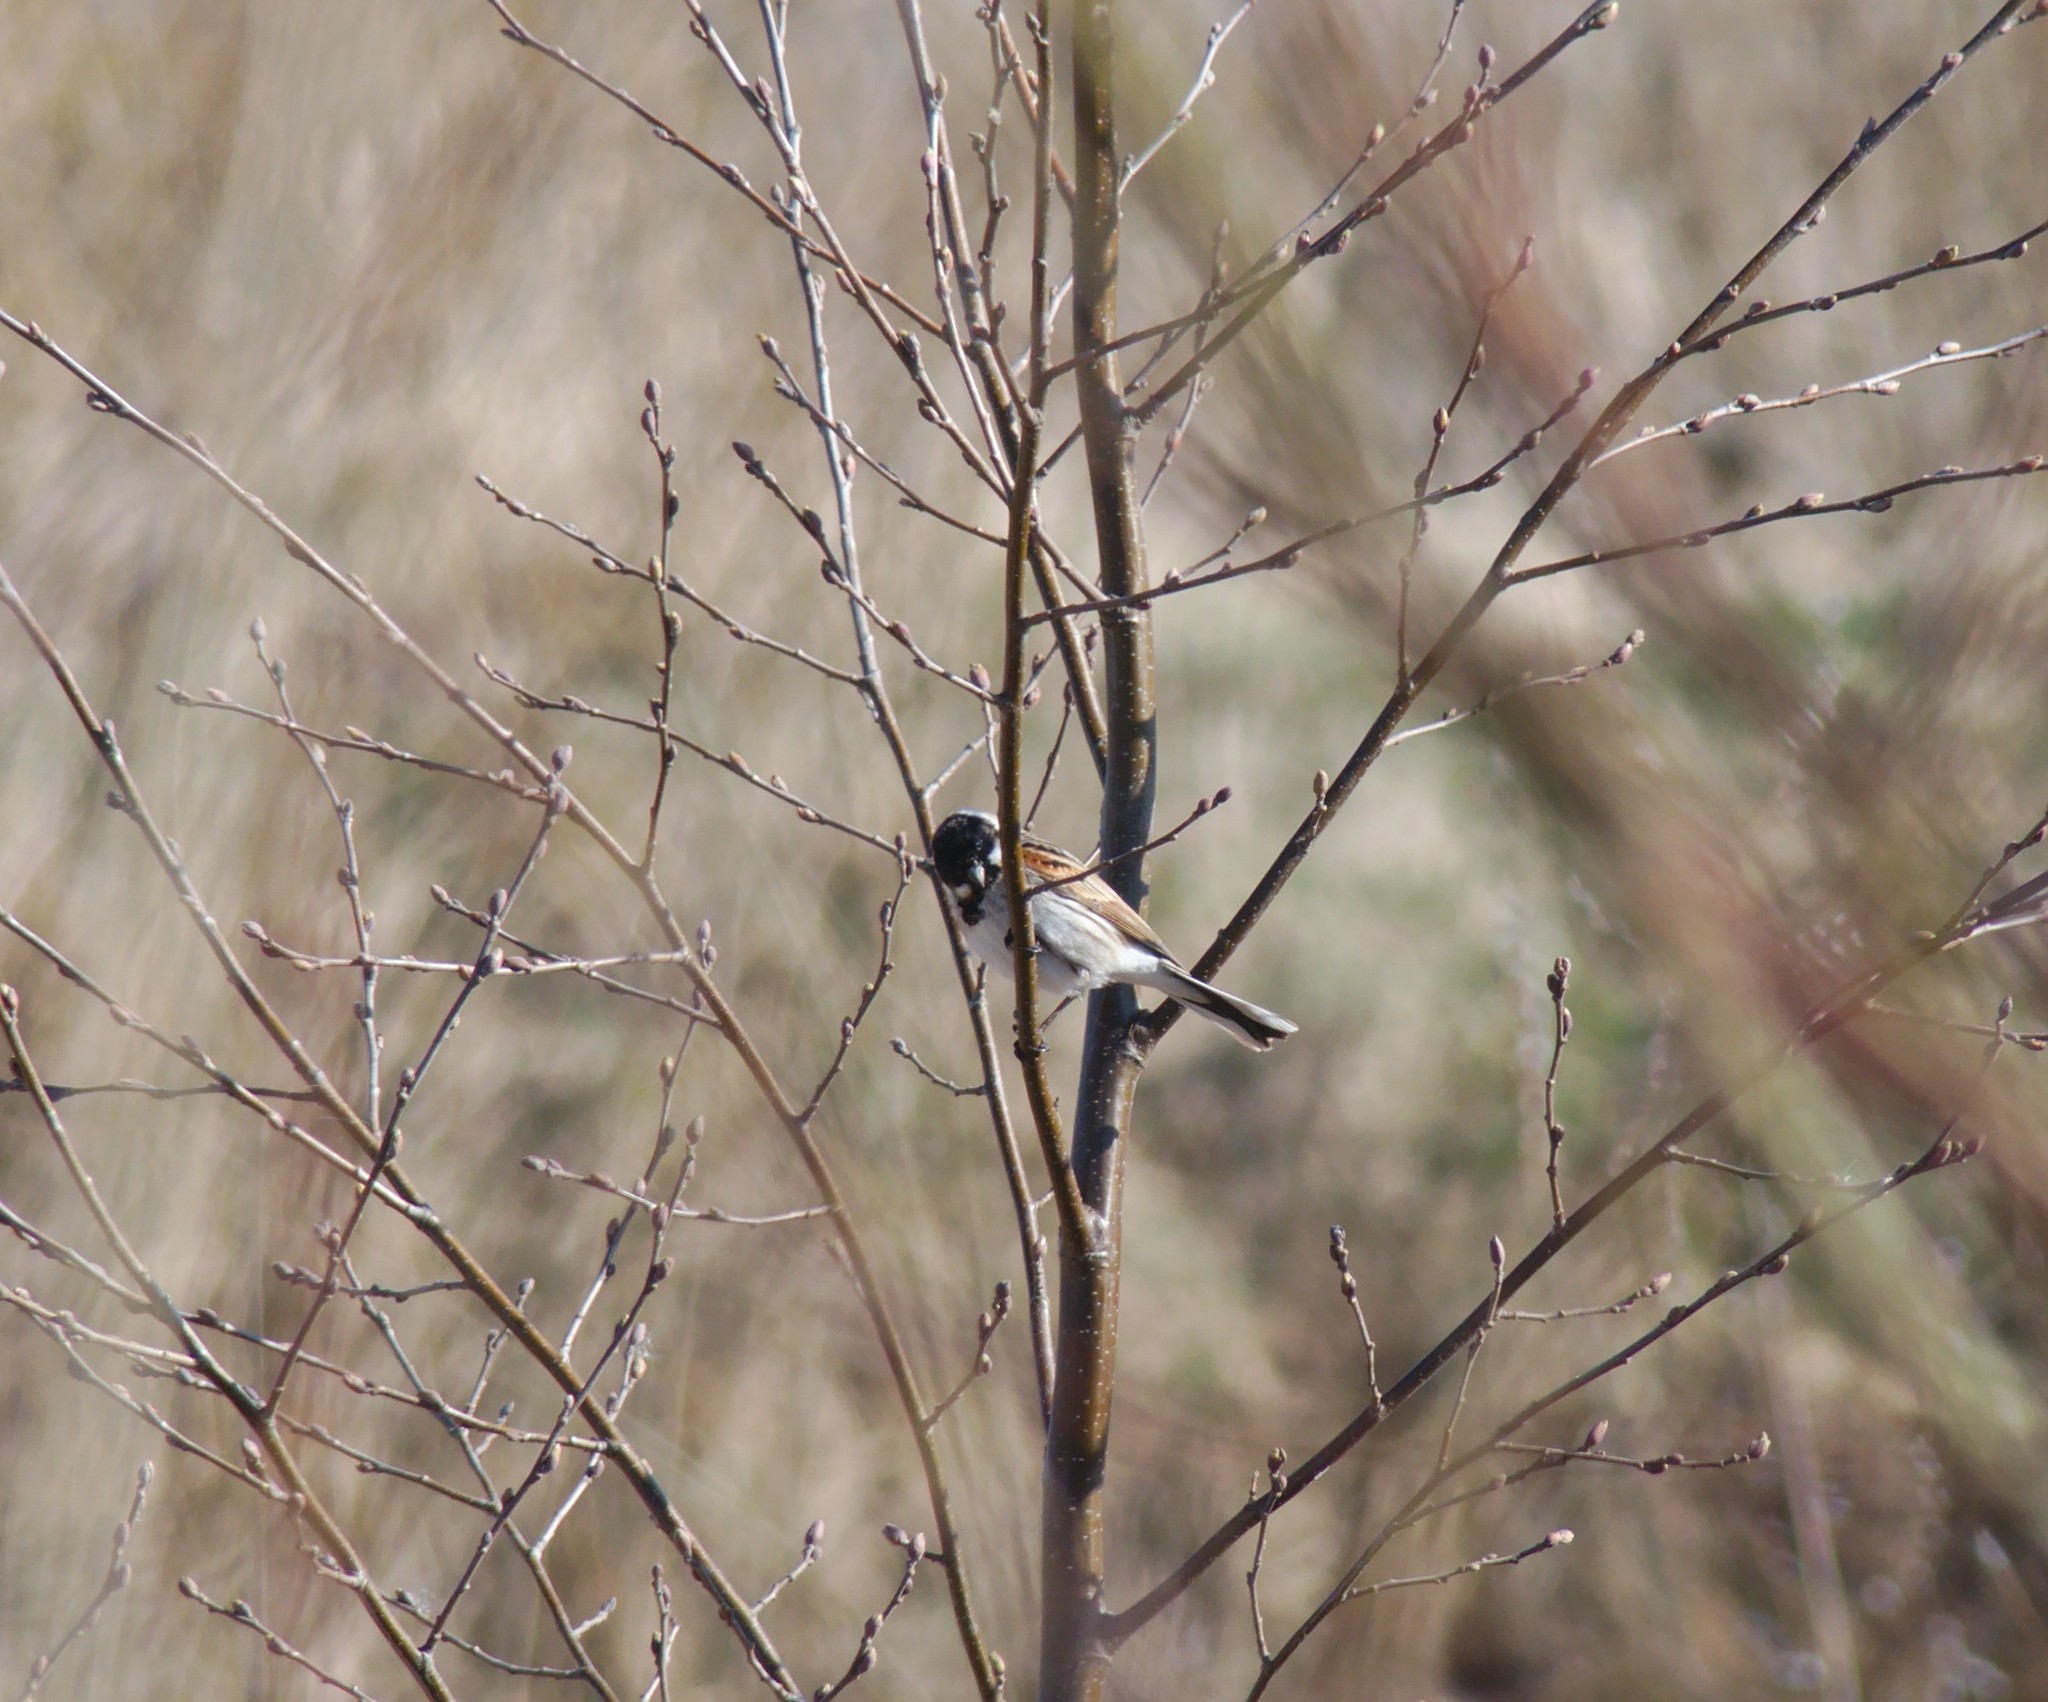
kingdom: Animalia
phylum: Chordata
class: Aves
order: Passeriformes
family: Emberizidae
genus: Emberiza
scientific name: Emberiza schoeniclus
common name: Reed bunting
